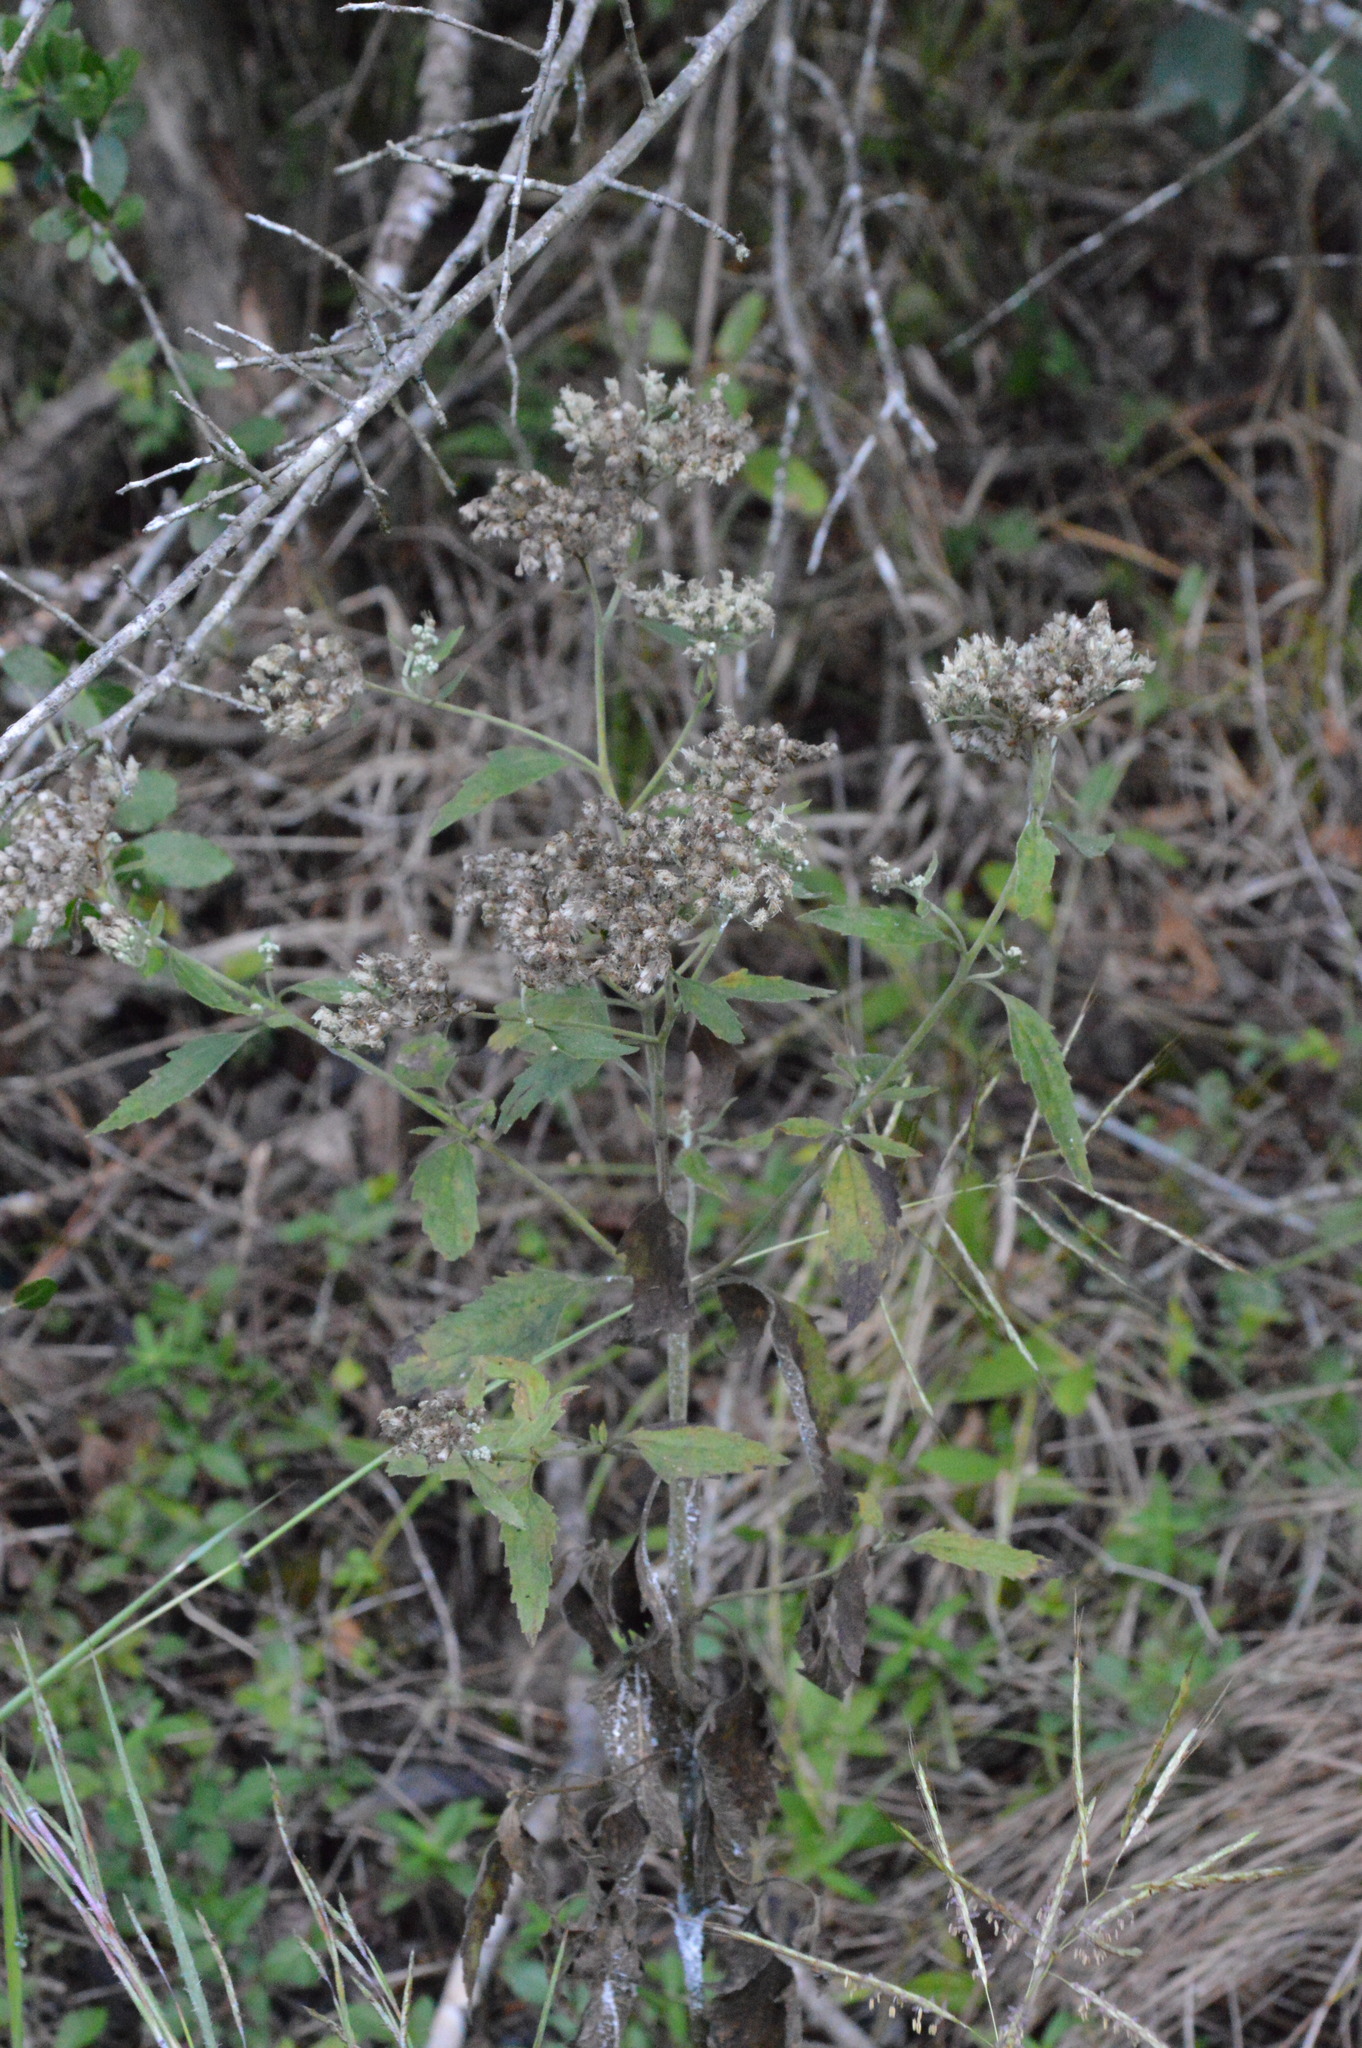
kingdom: Plantae
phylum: Tracheophyta
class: Magnoliopsida
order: Asterales
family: Asteraceae
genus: Eupatorium
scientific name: Eupatorium serotinum
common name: Late boneset
